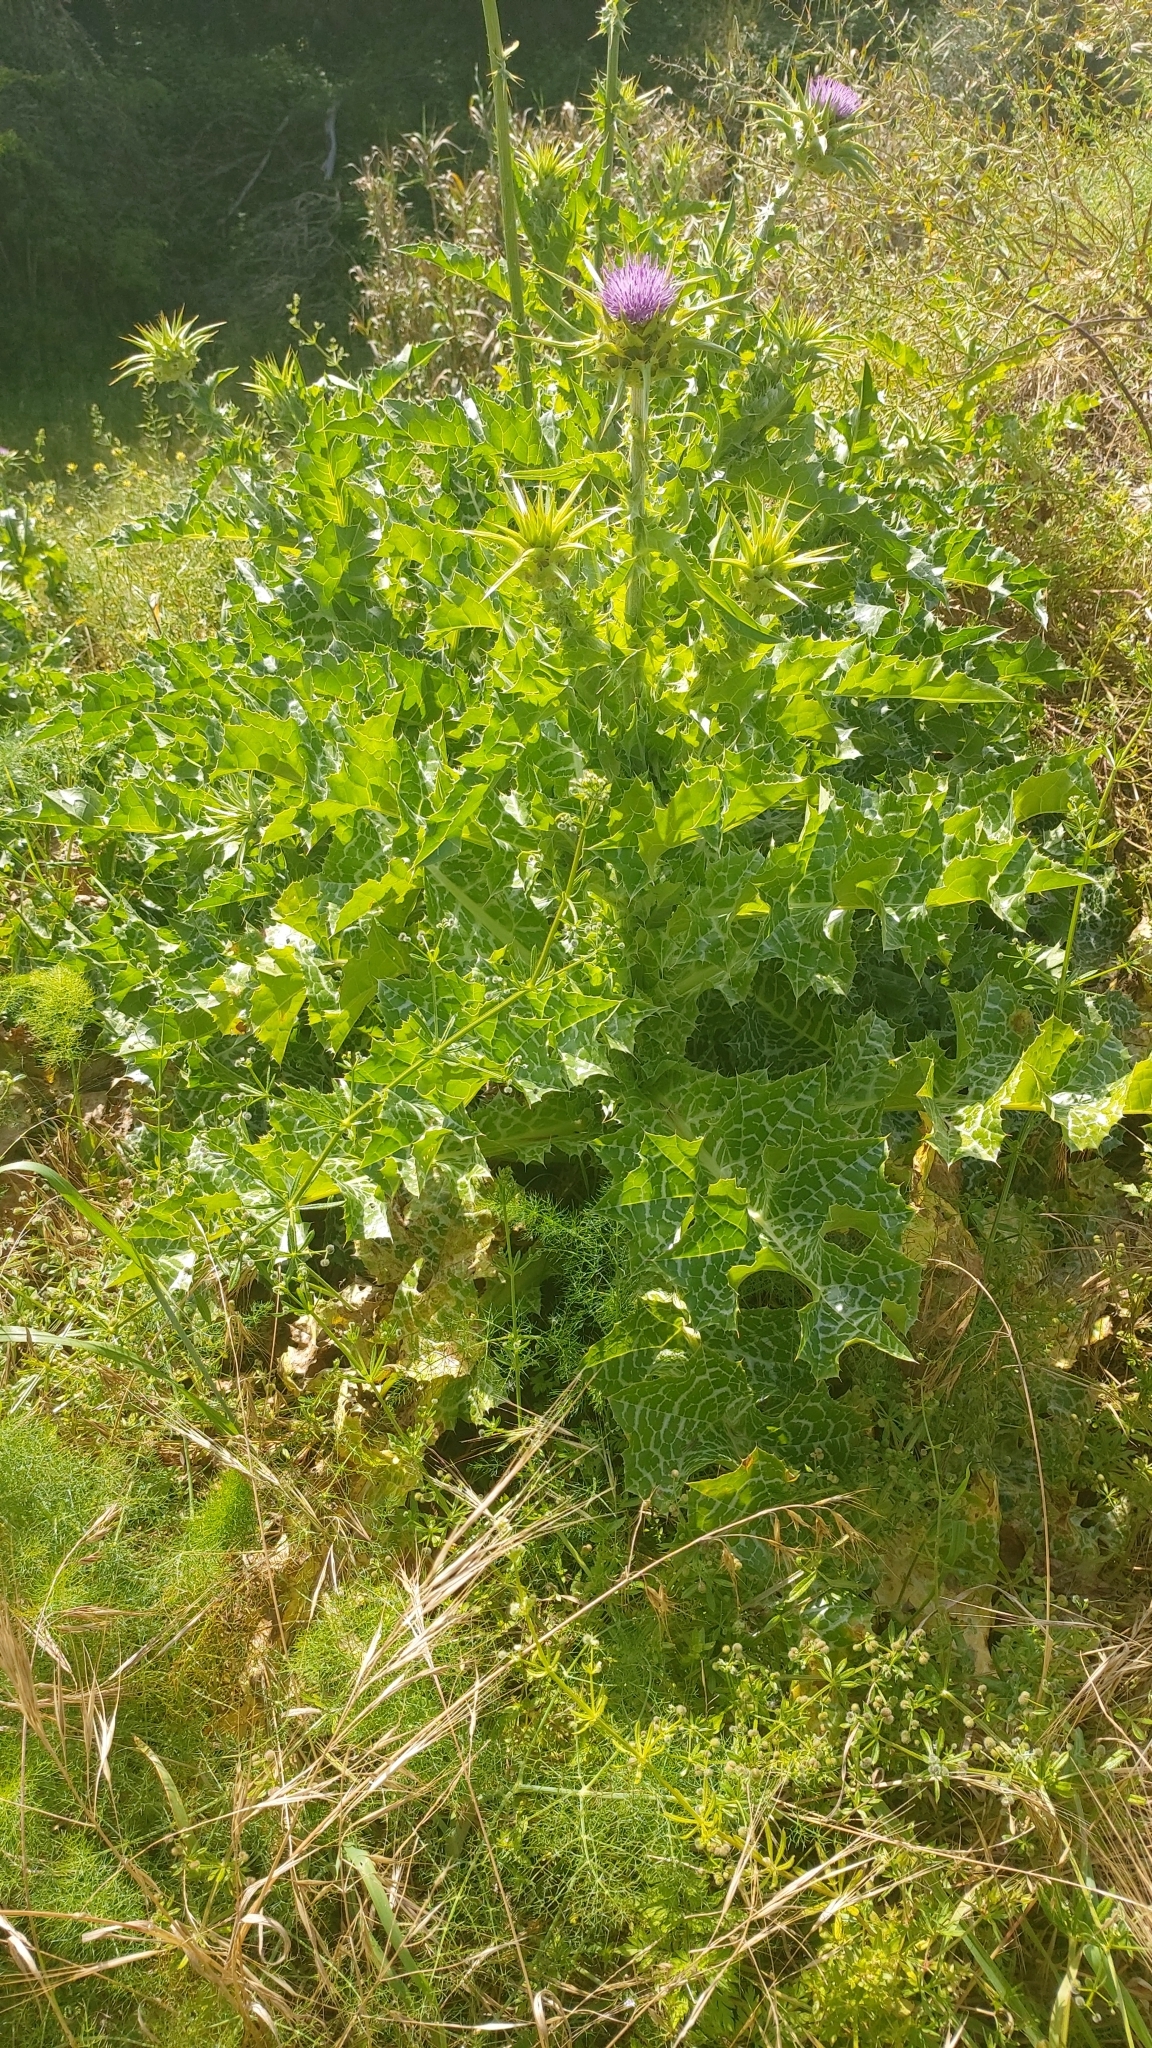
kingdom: Plantae
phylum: Tracheophyta
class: Magnoliopsida
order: Asterales
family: Asteraceae
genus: Silybum
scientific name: Silybum marianum
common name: Milk thistle
